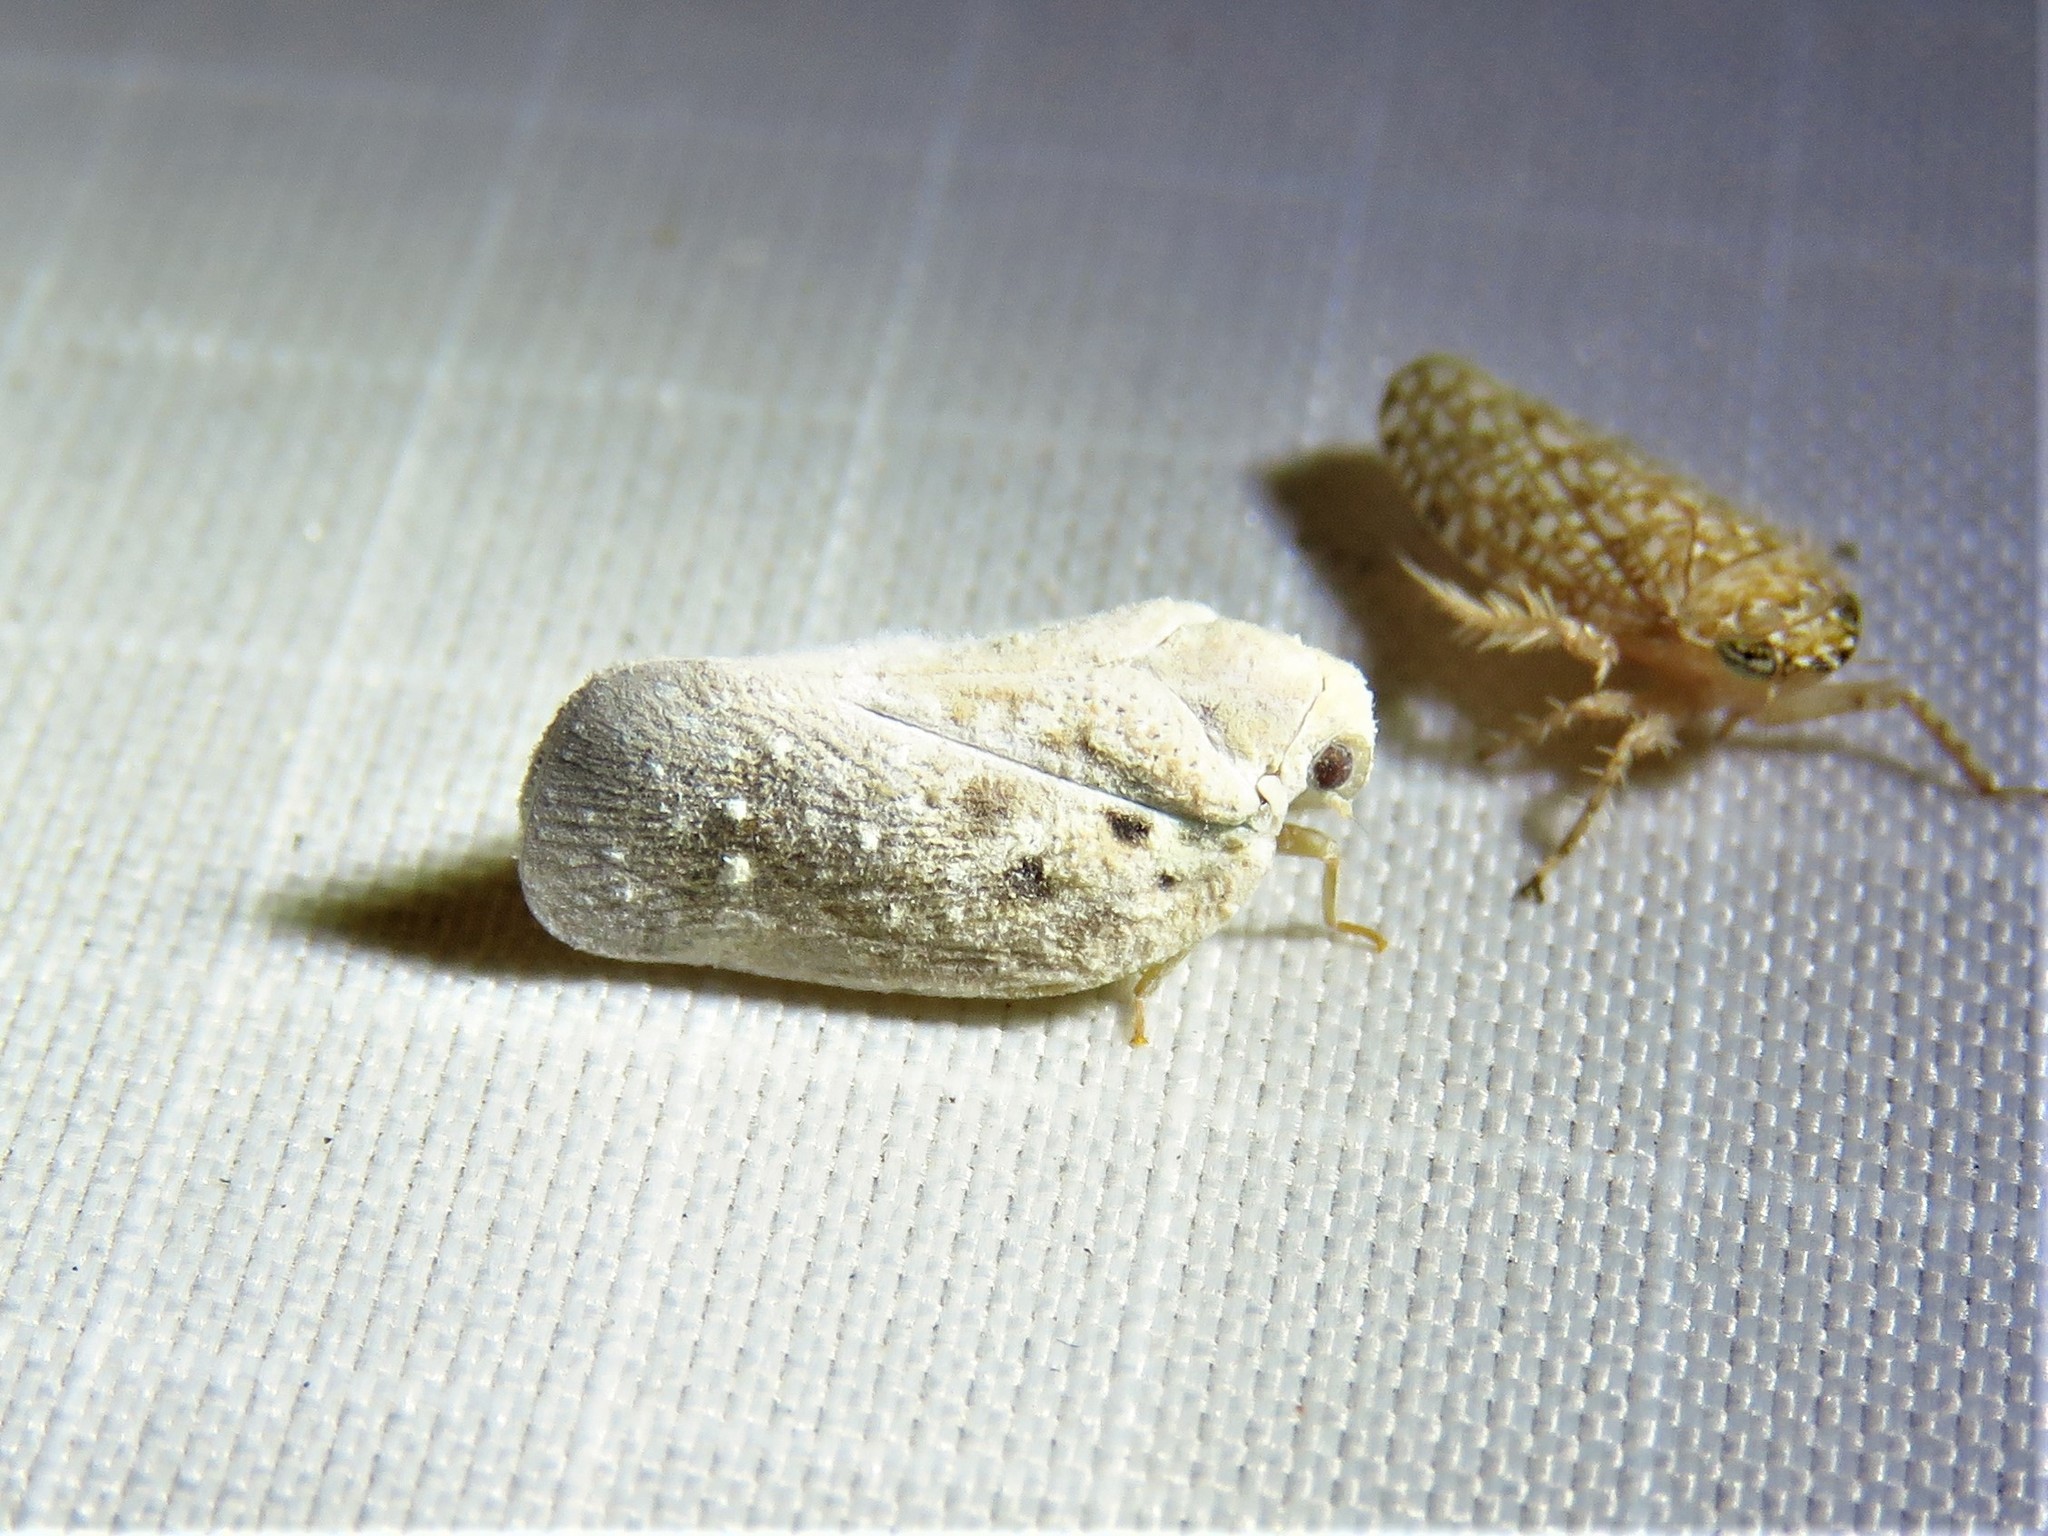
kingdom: Animalia
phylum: Arthropoda
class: Insecta
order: Hemiptera
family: Flatidae
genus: Metcalfa
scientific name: Metcalfa pruinosa
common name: Citrus flatid planthopper
